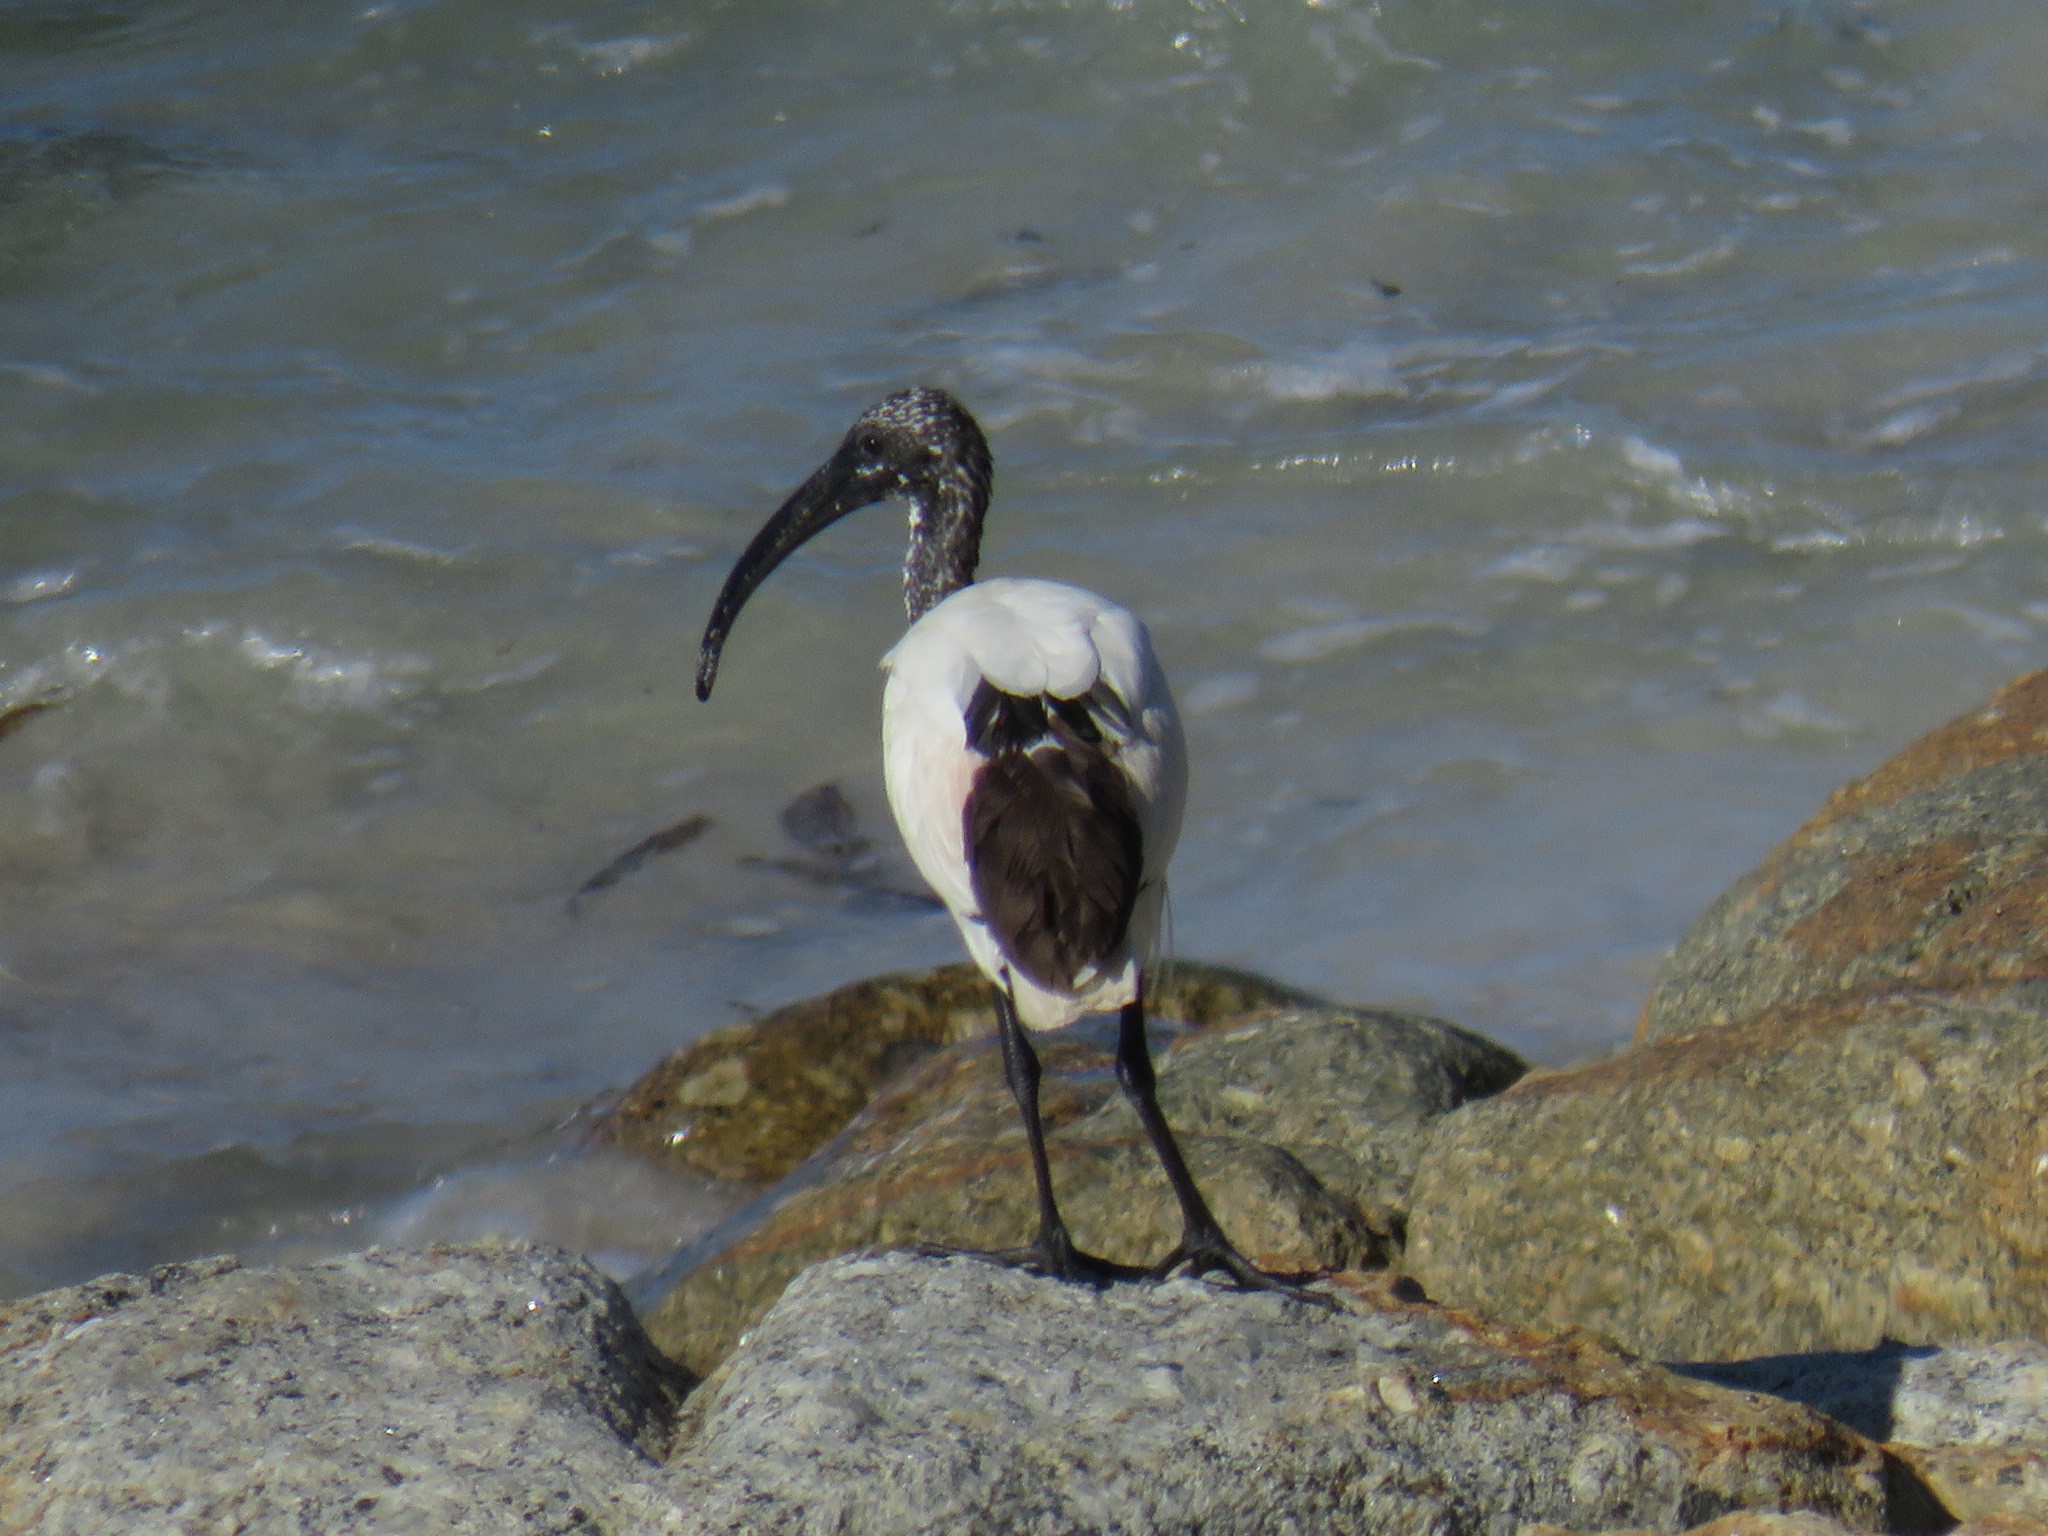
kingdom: Animalia
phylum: Chordata
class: Aves
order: Pelecaniformes
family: Threskiornithidae
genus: Threskiornis
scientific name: Threskiornis aethiopicus
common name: Sacred ibis
